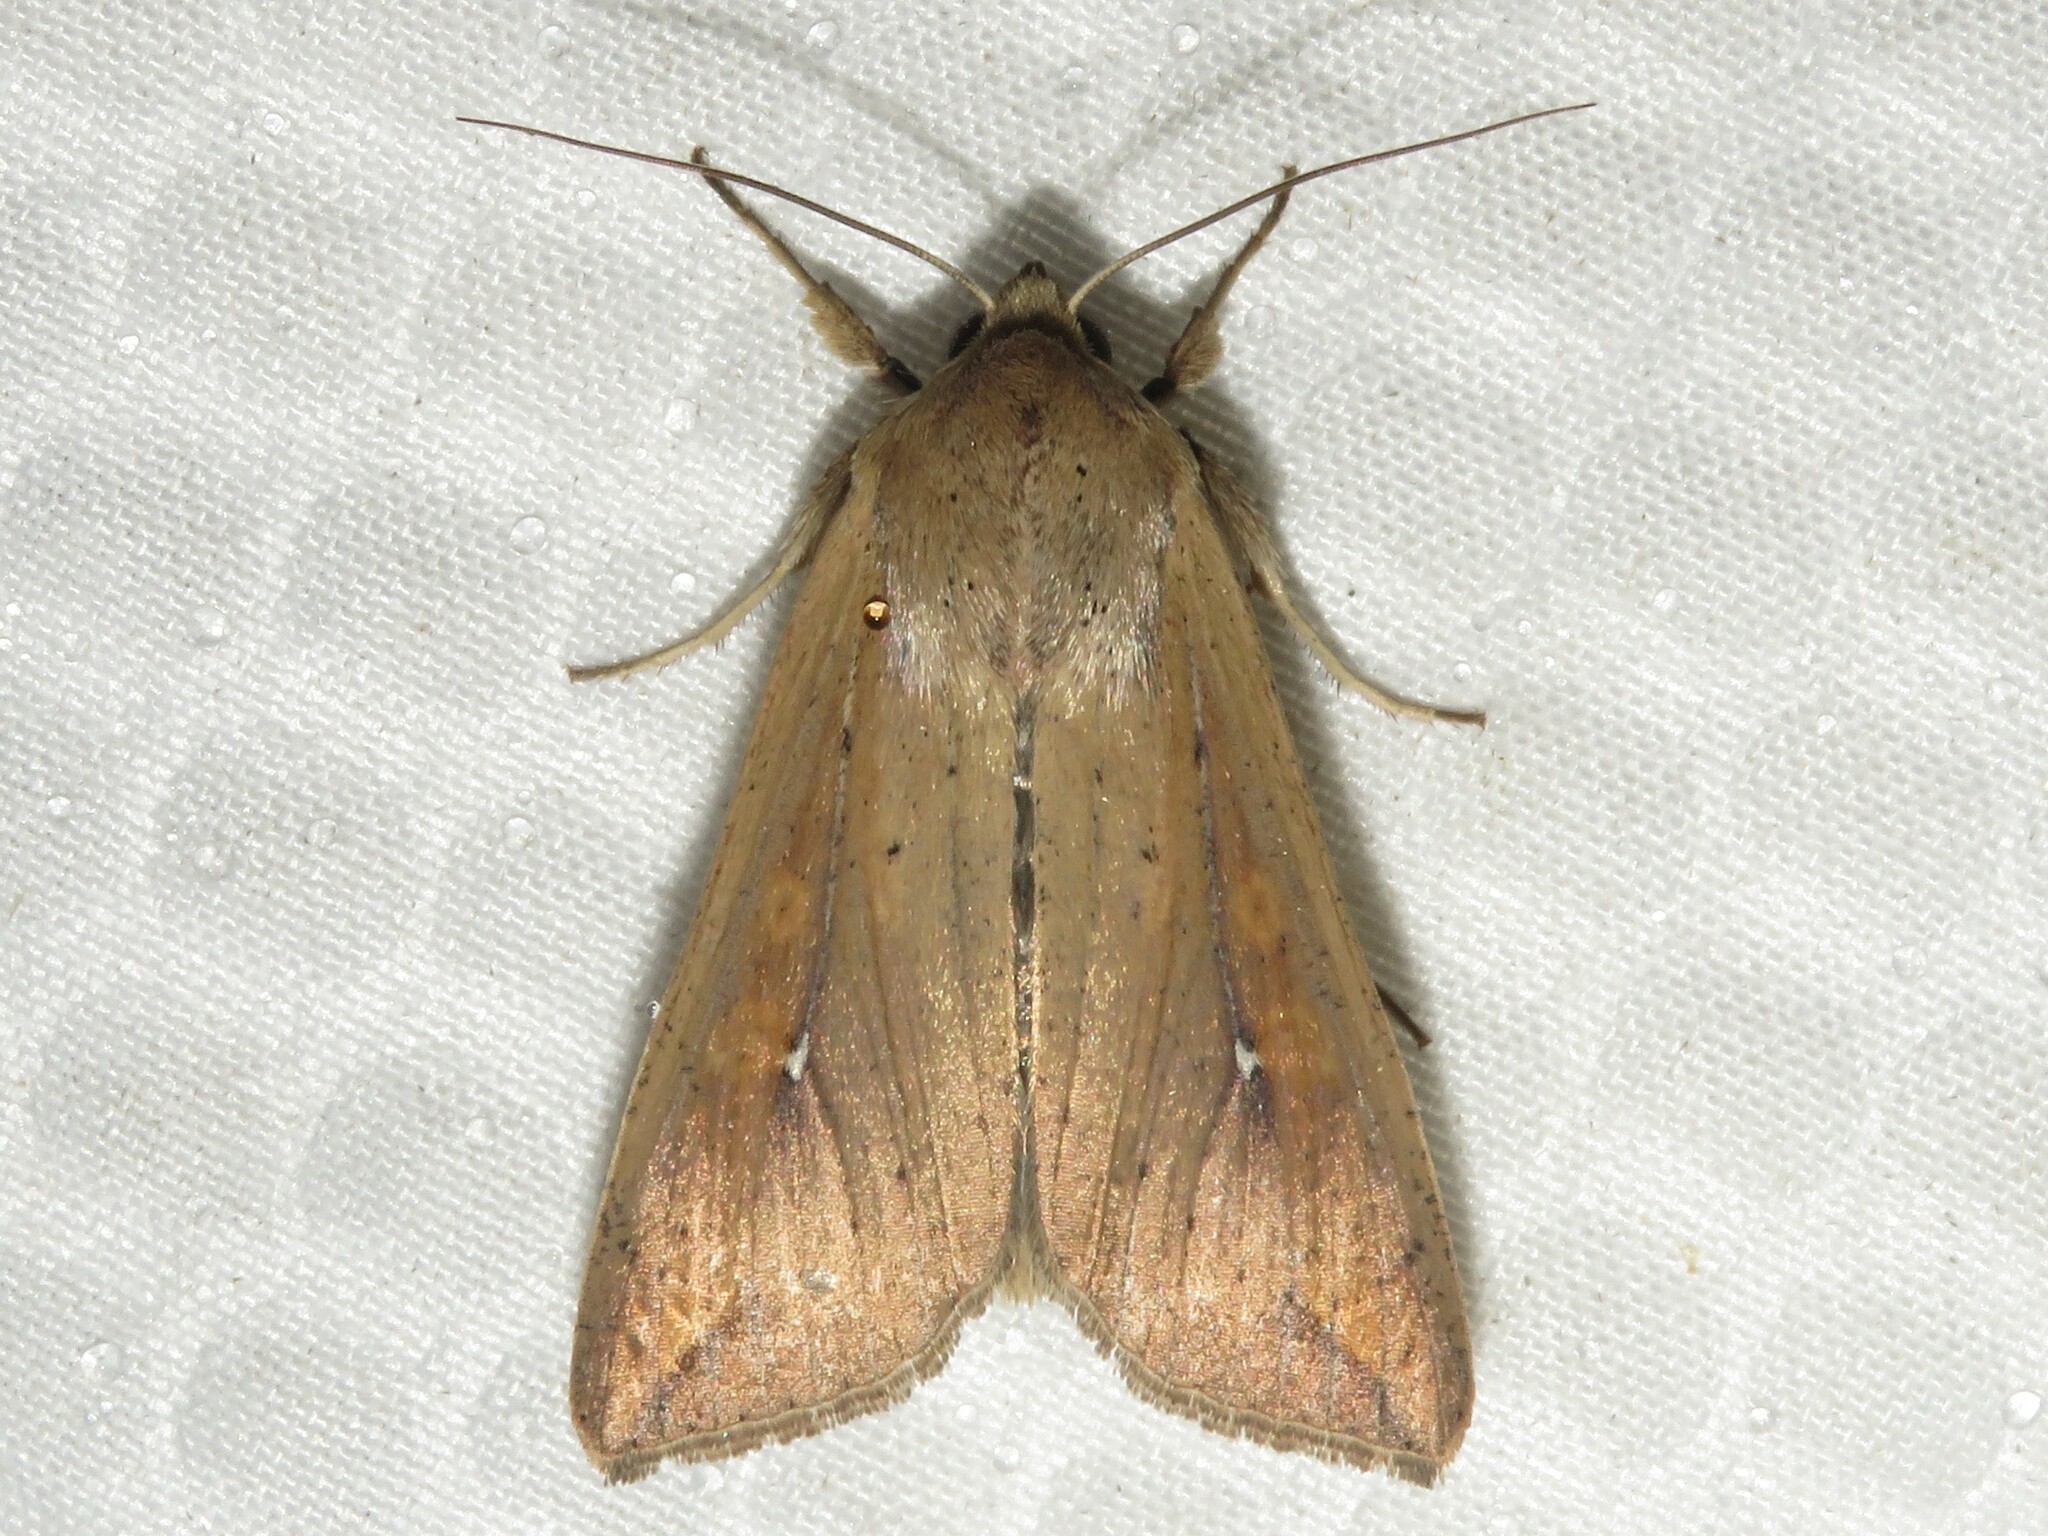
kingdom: Animalia
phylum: Arthropoda
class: Insecta
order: Lepidoptera
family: Noctuidae
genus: Mythimna
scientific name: Mythimna unipuncta
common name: White-speck
